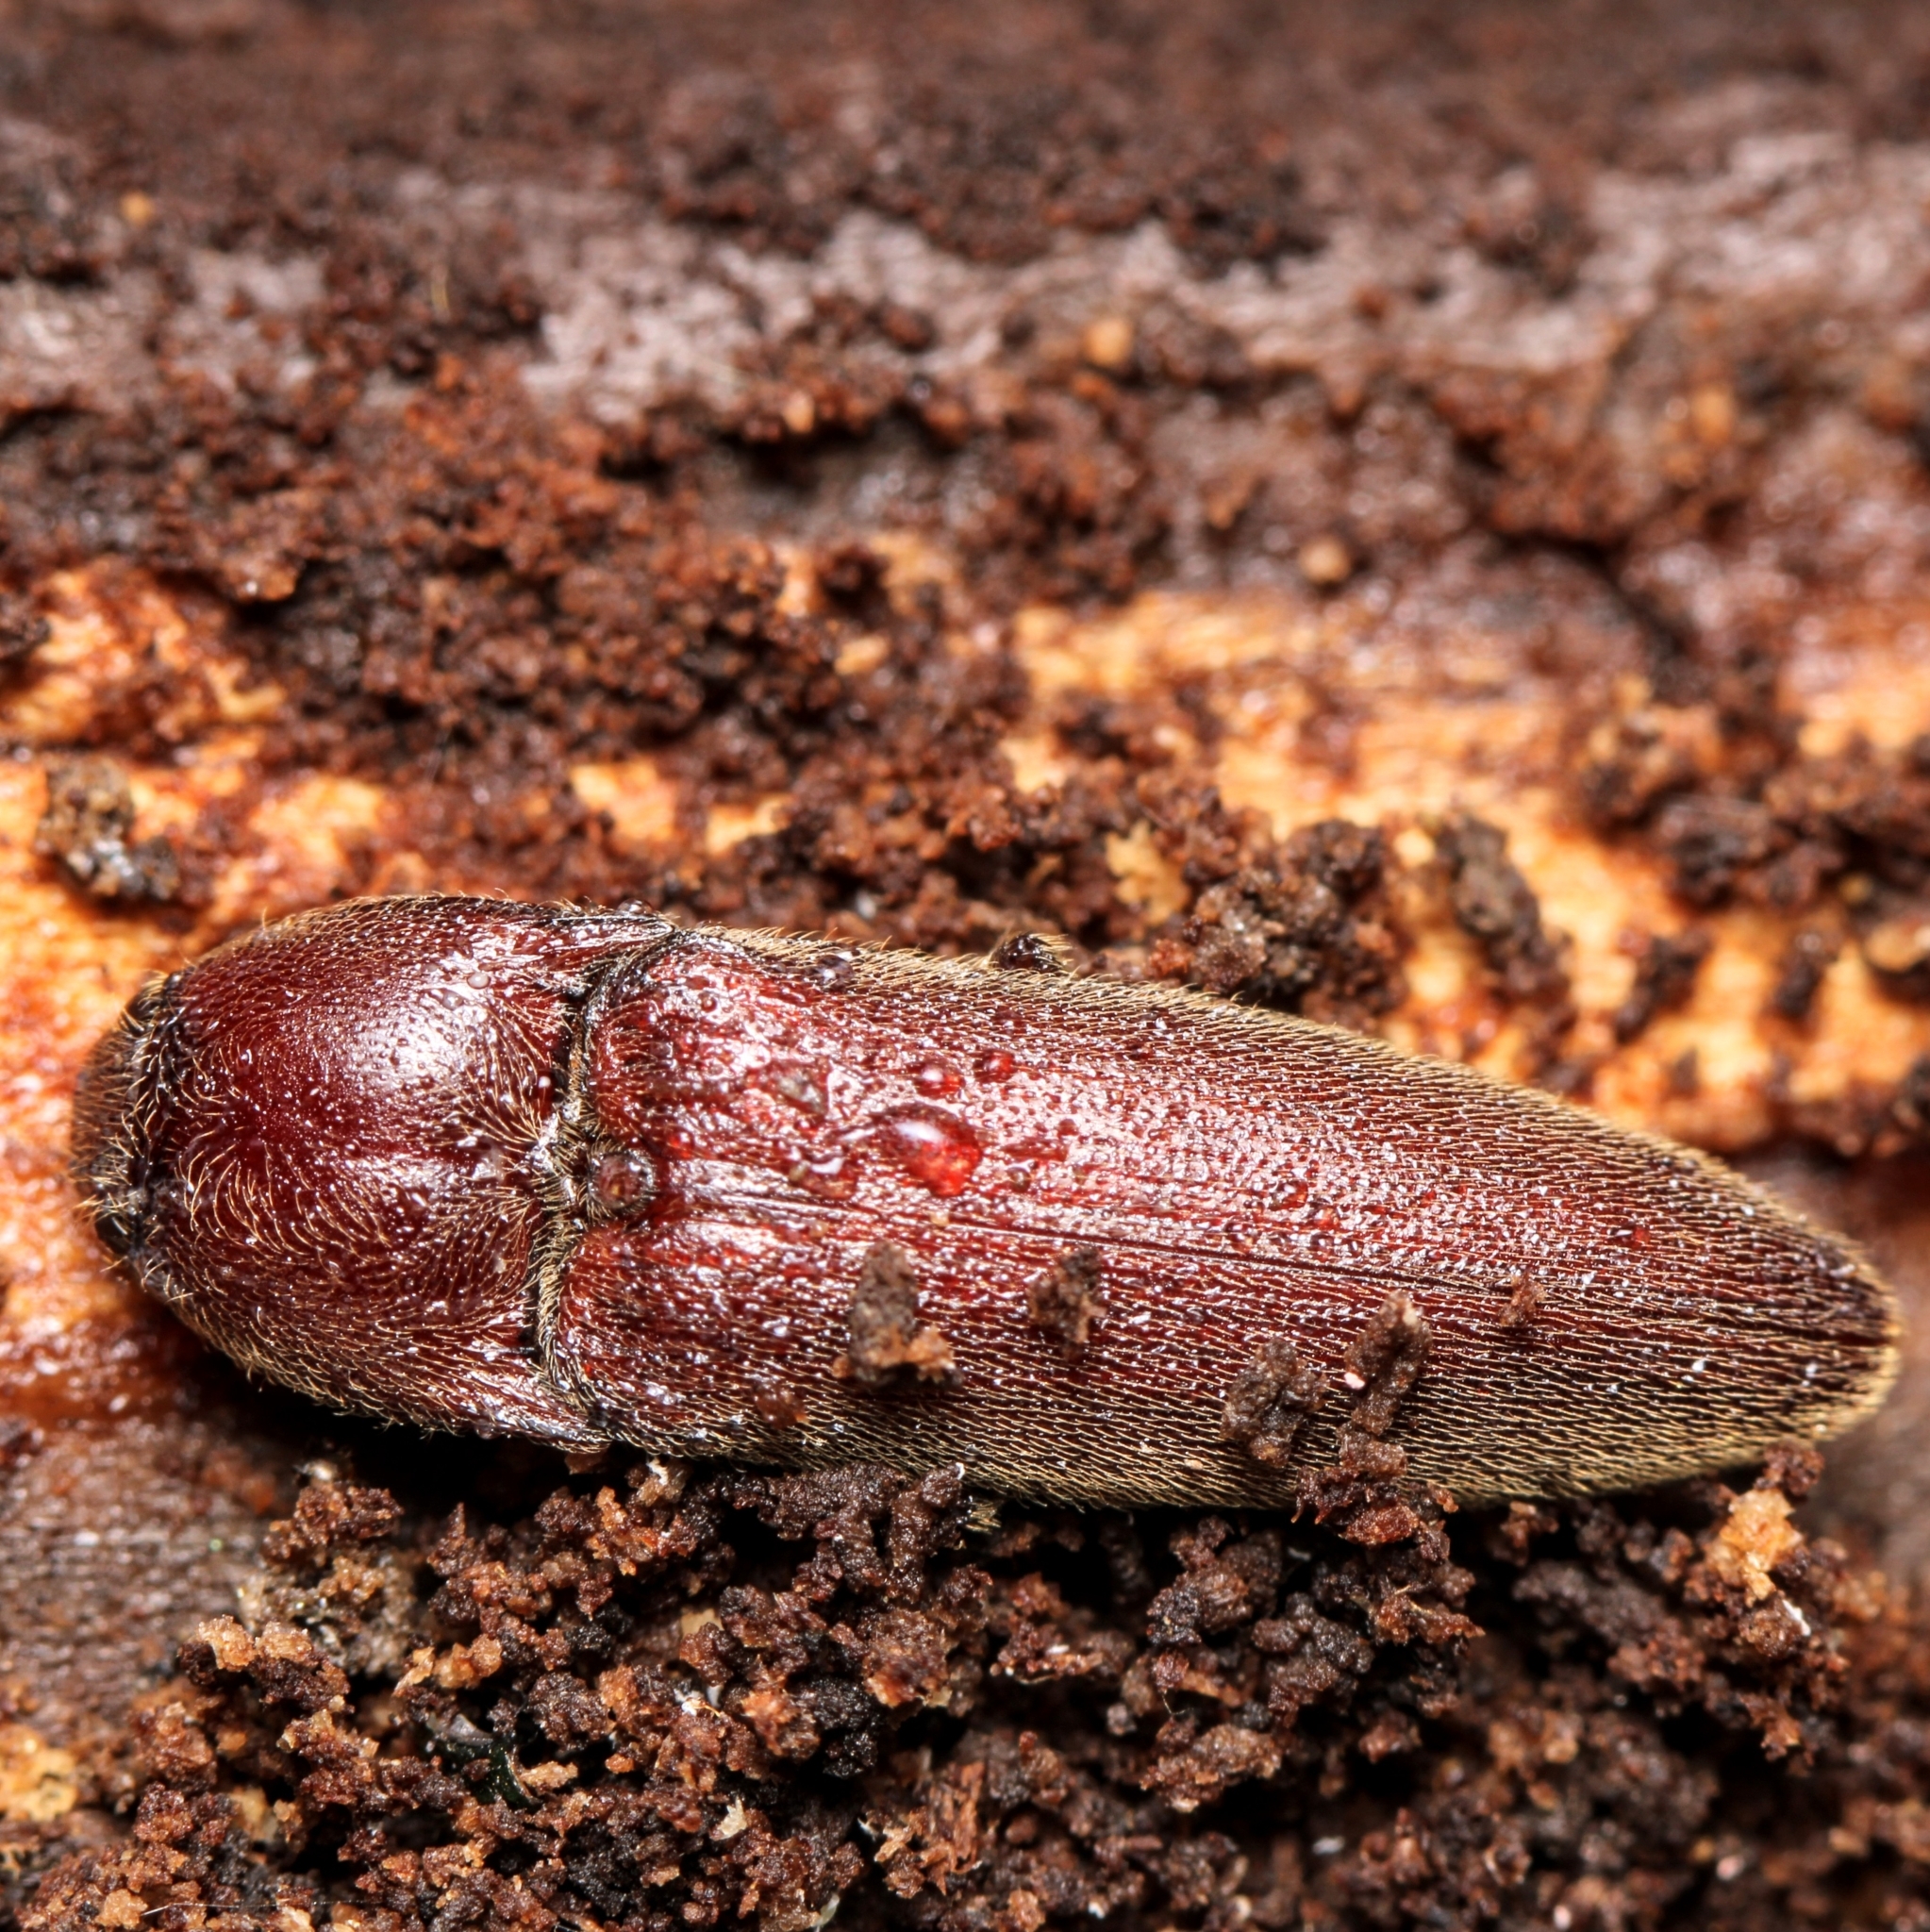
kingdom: Animalia
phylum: Arthropoda
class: Insecta
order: Coleoptera
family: Elateridae
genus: Melanotus
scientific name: Melanotus
